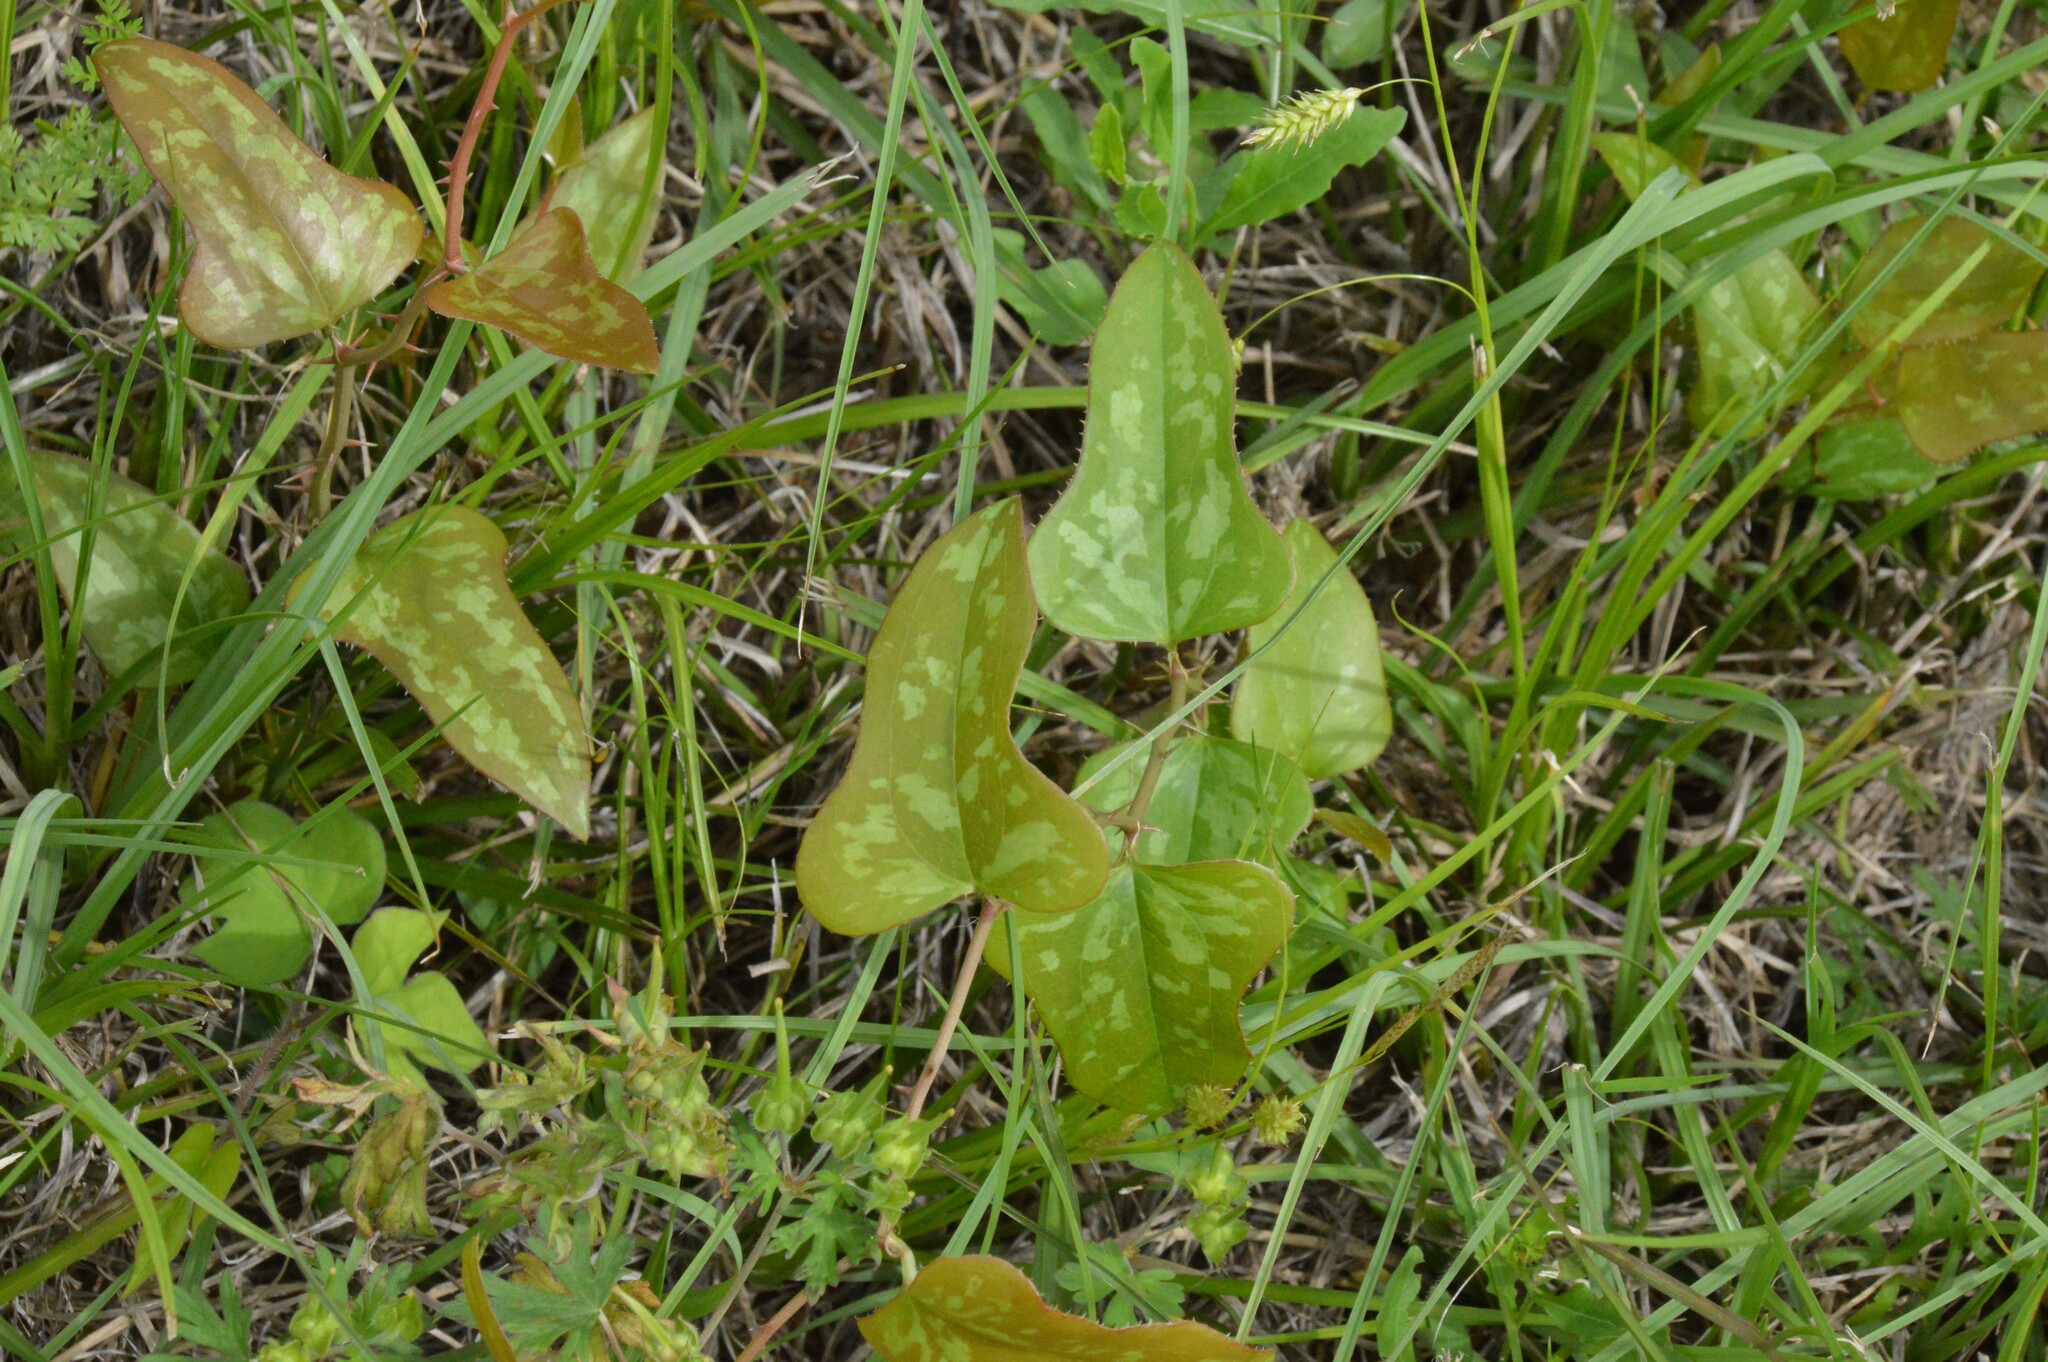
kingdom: Plantae
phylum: Tracheophyta
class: Liliopsida
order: Liliales
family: Smilacaceae
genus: Smilax
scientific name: Smilax bona-nox
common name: Catbrier
